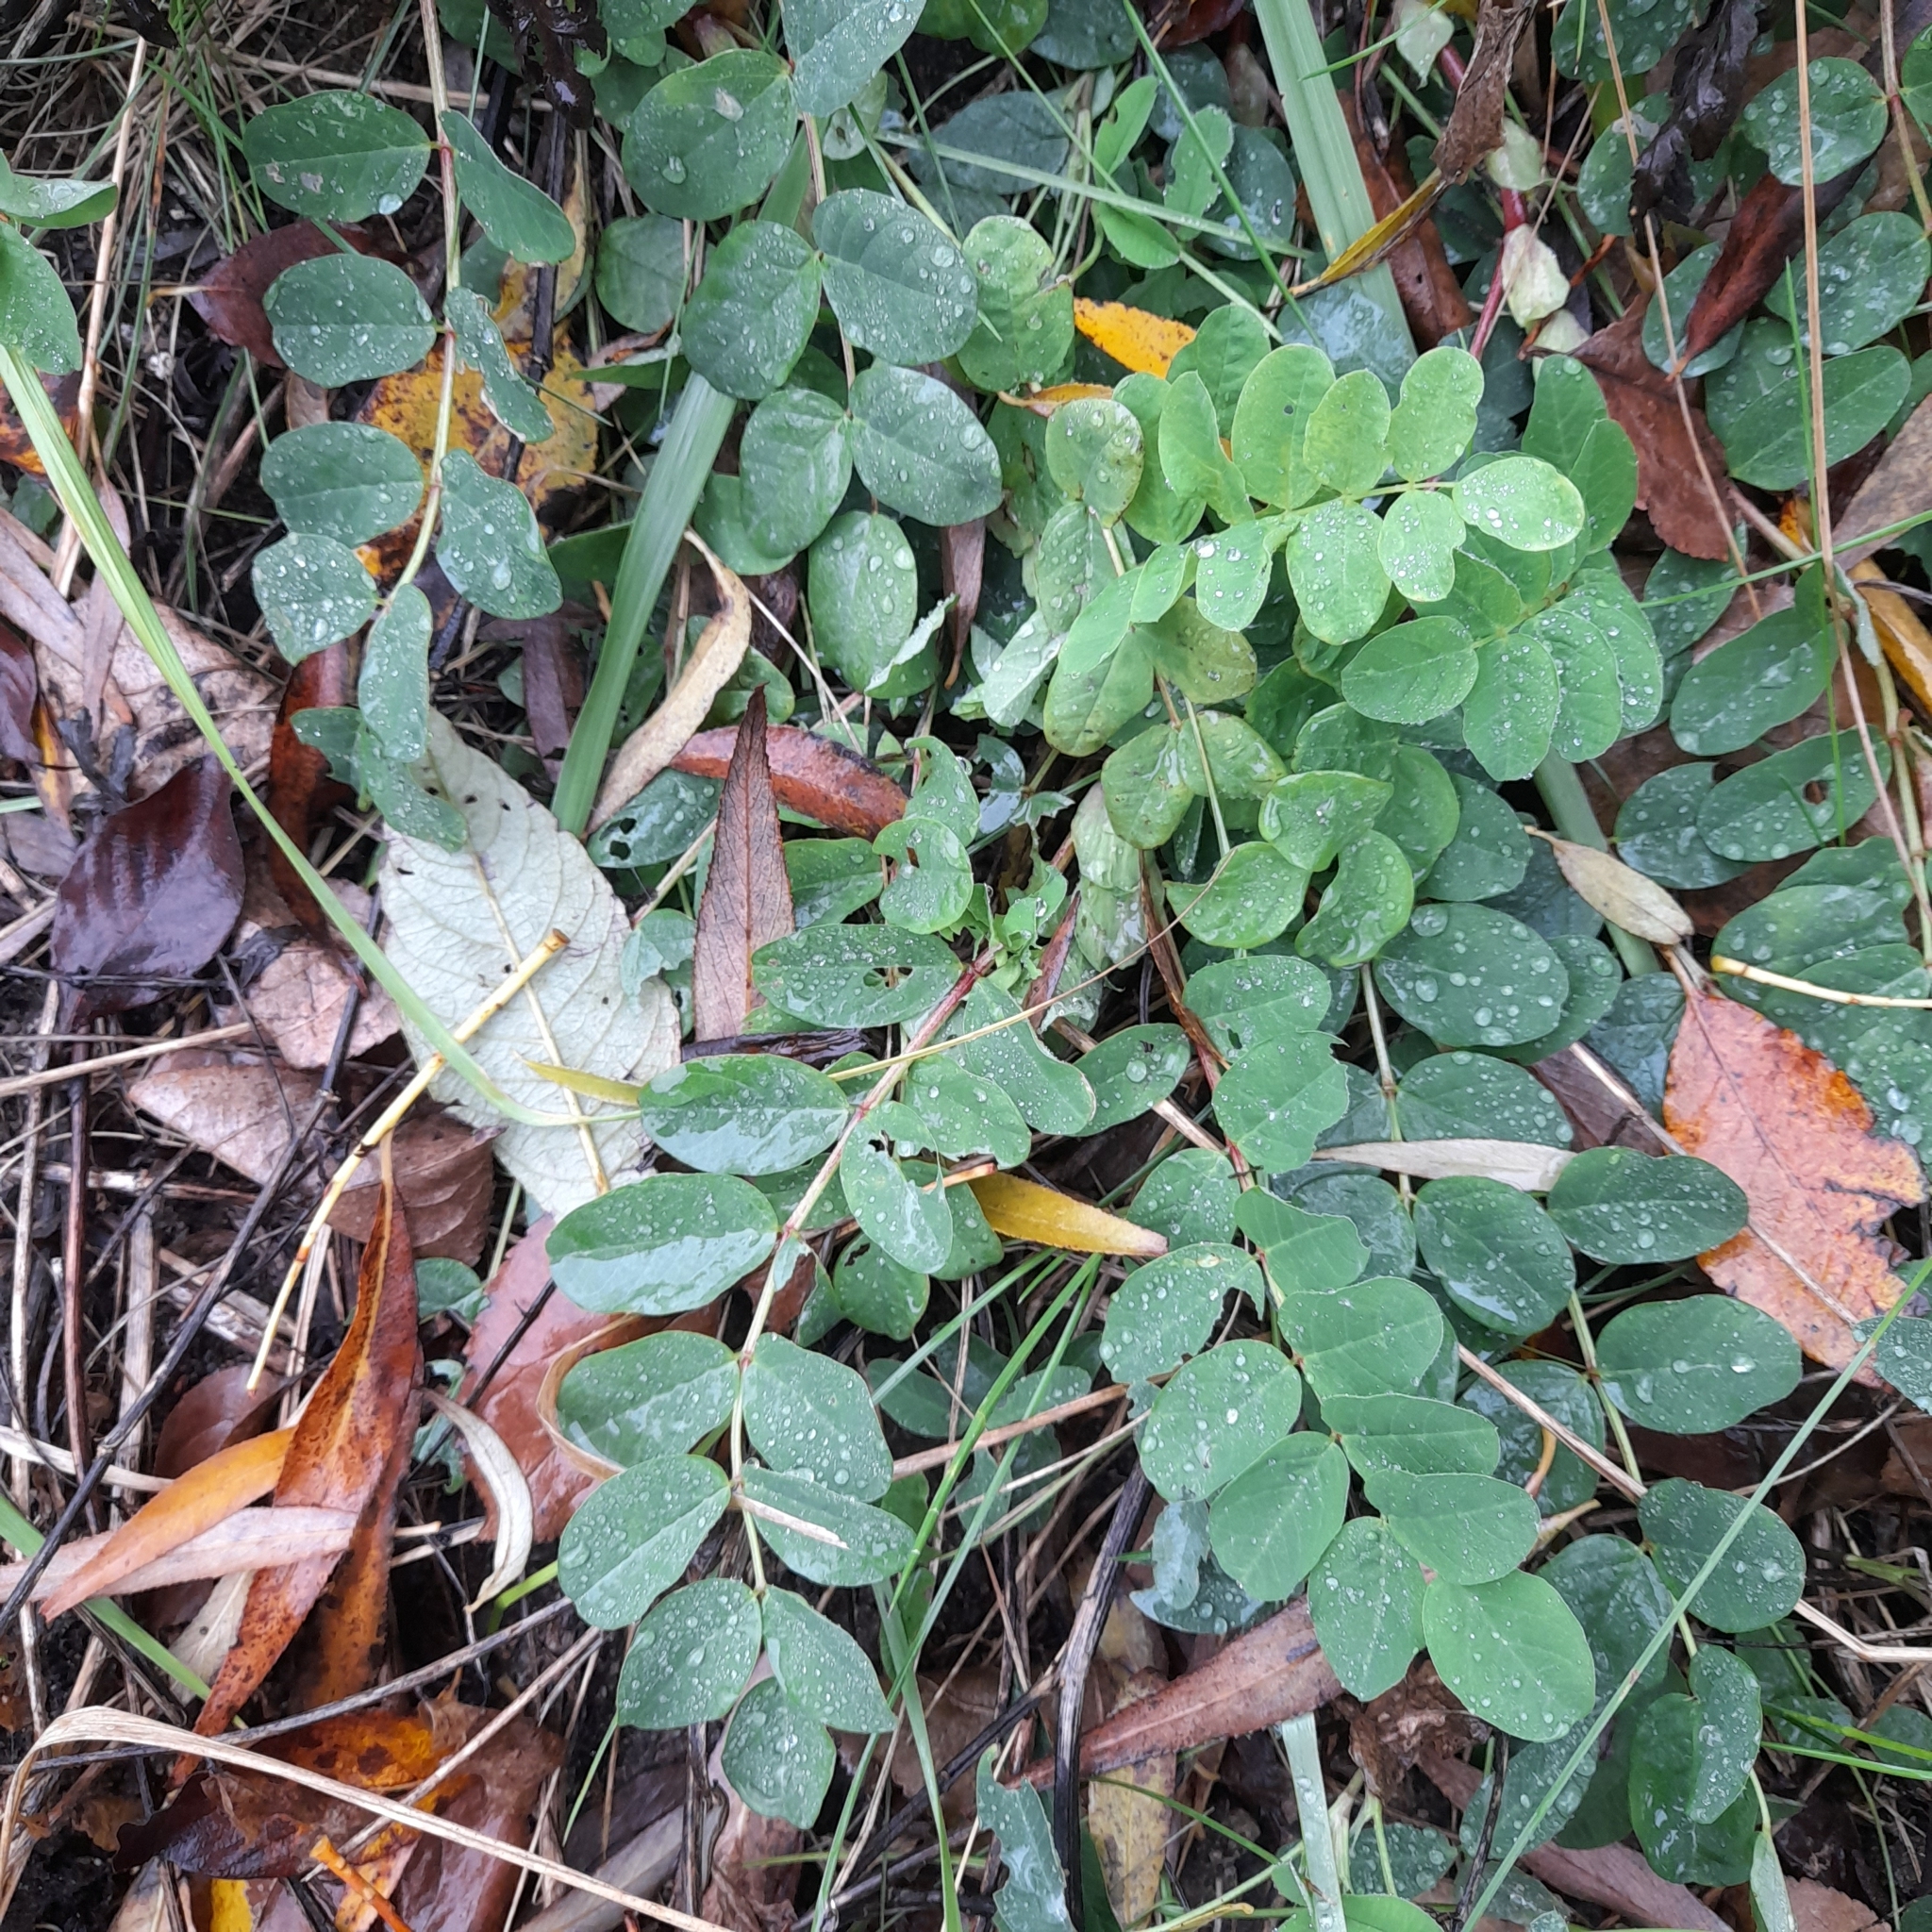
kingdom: Plantae
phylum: Tracheophyta
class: Magnoliopsida
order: Fabales
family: Fabaceae
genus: Astragalus
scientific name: Astragalus glycyphyllos
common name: Wild liquorice
